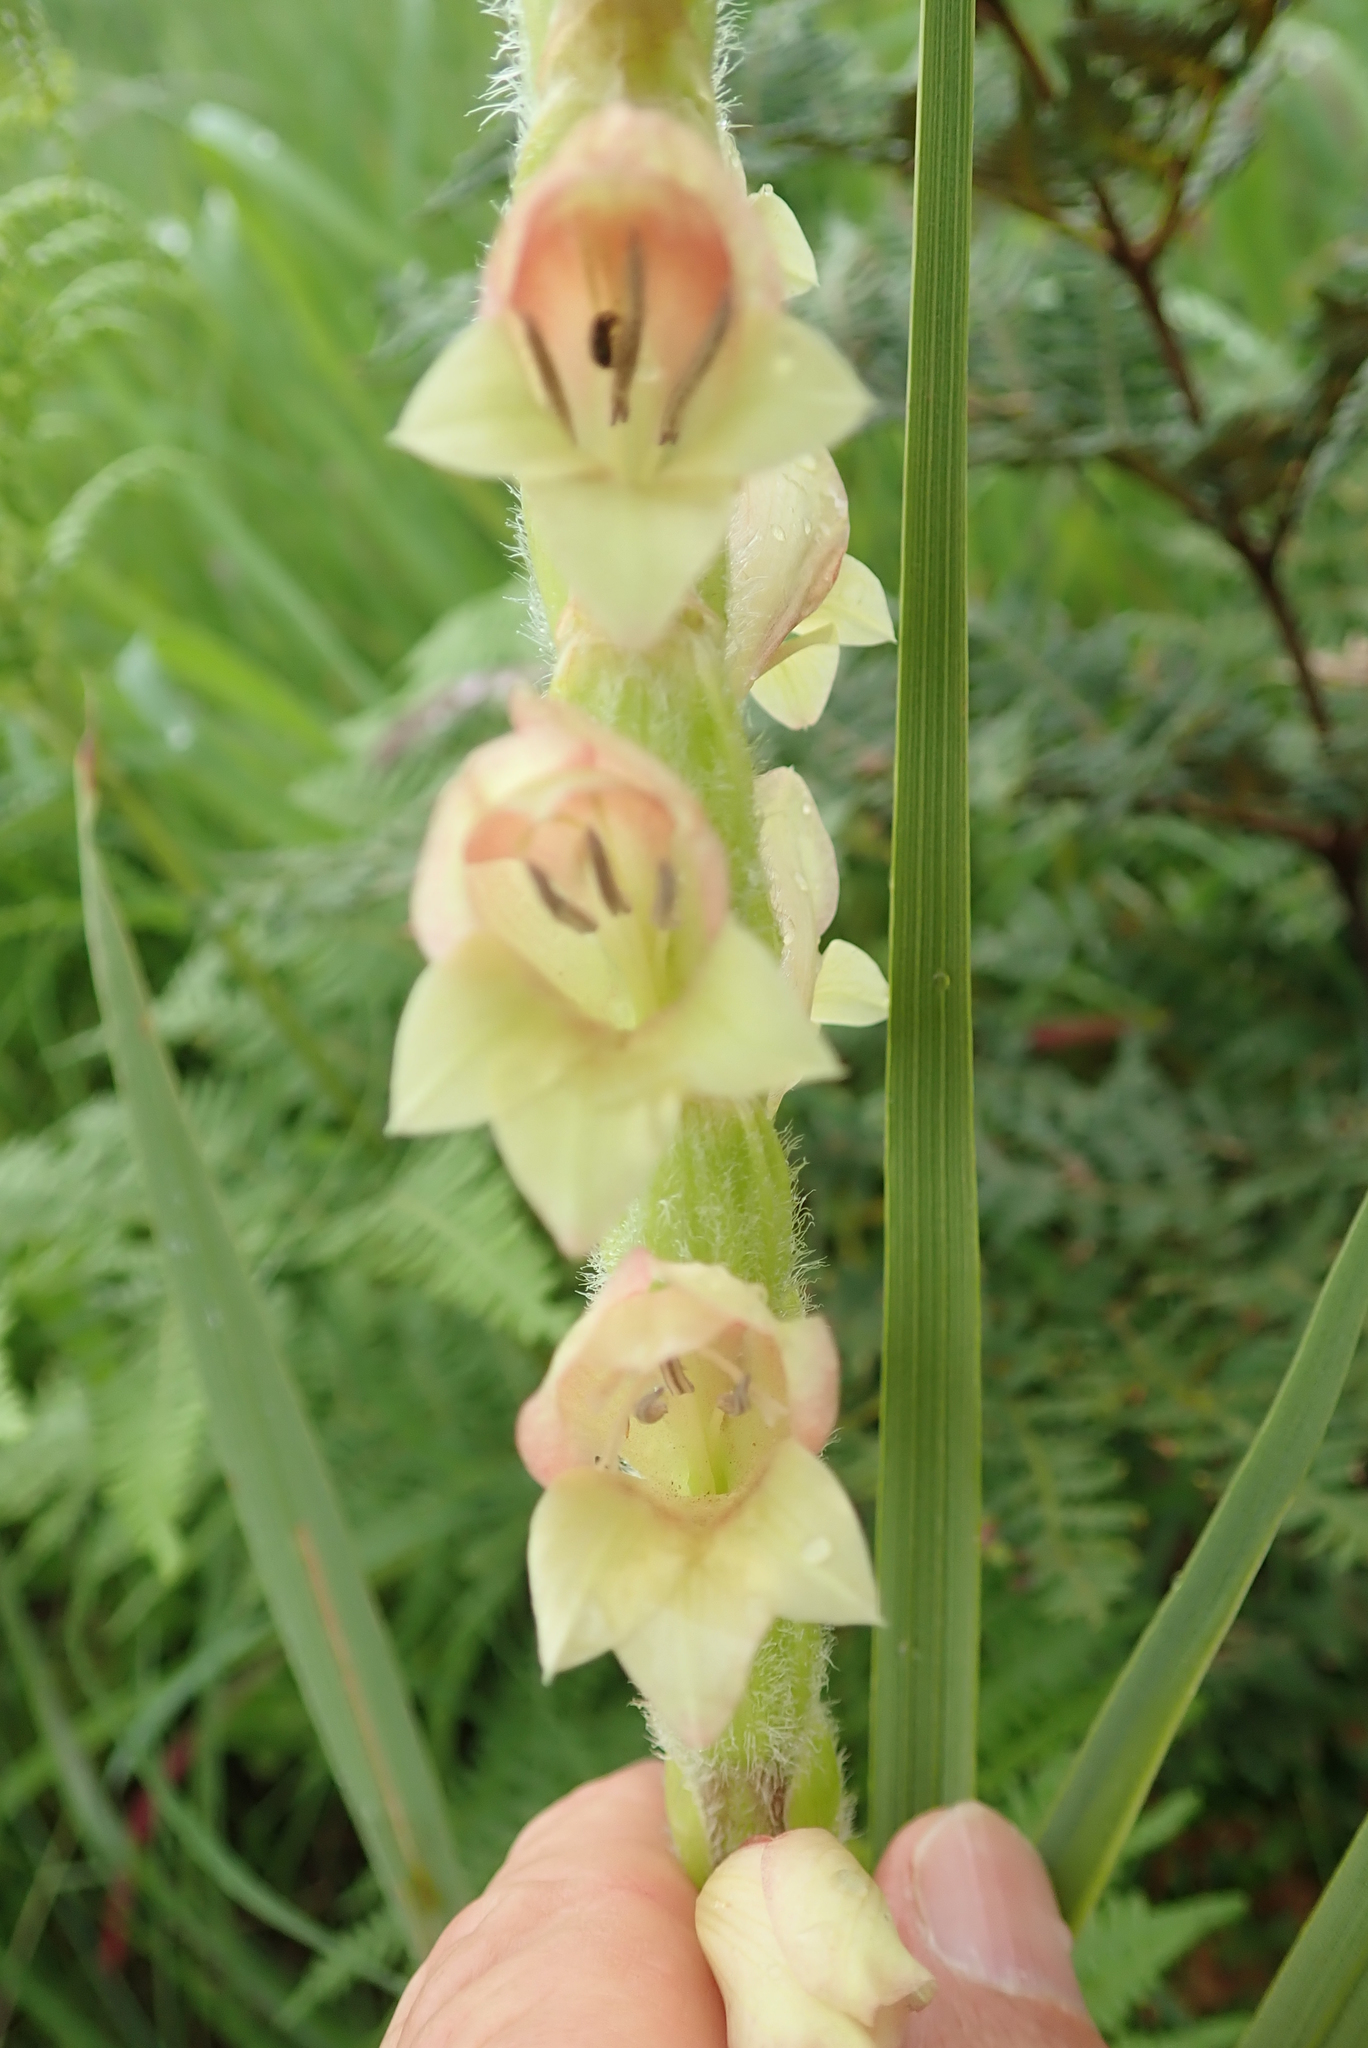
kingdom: Plantae
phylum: Tracheophyta
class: Liliopsida
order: Asparagales
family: Iridaceae
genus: Gladiolus
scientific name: Gladiolus sericeovillosus
